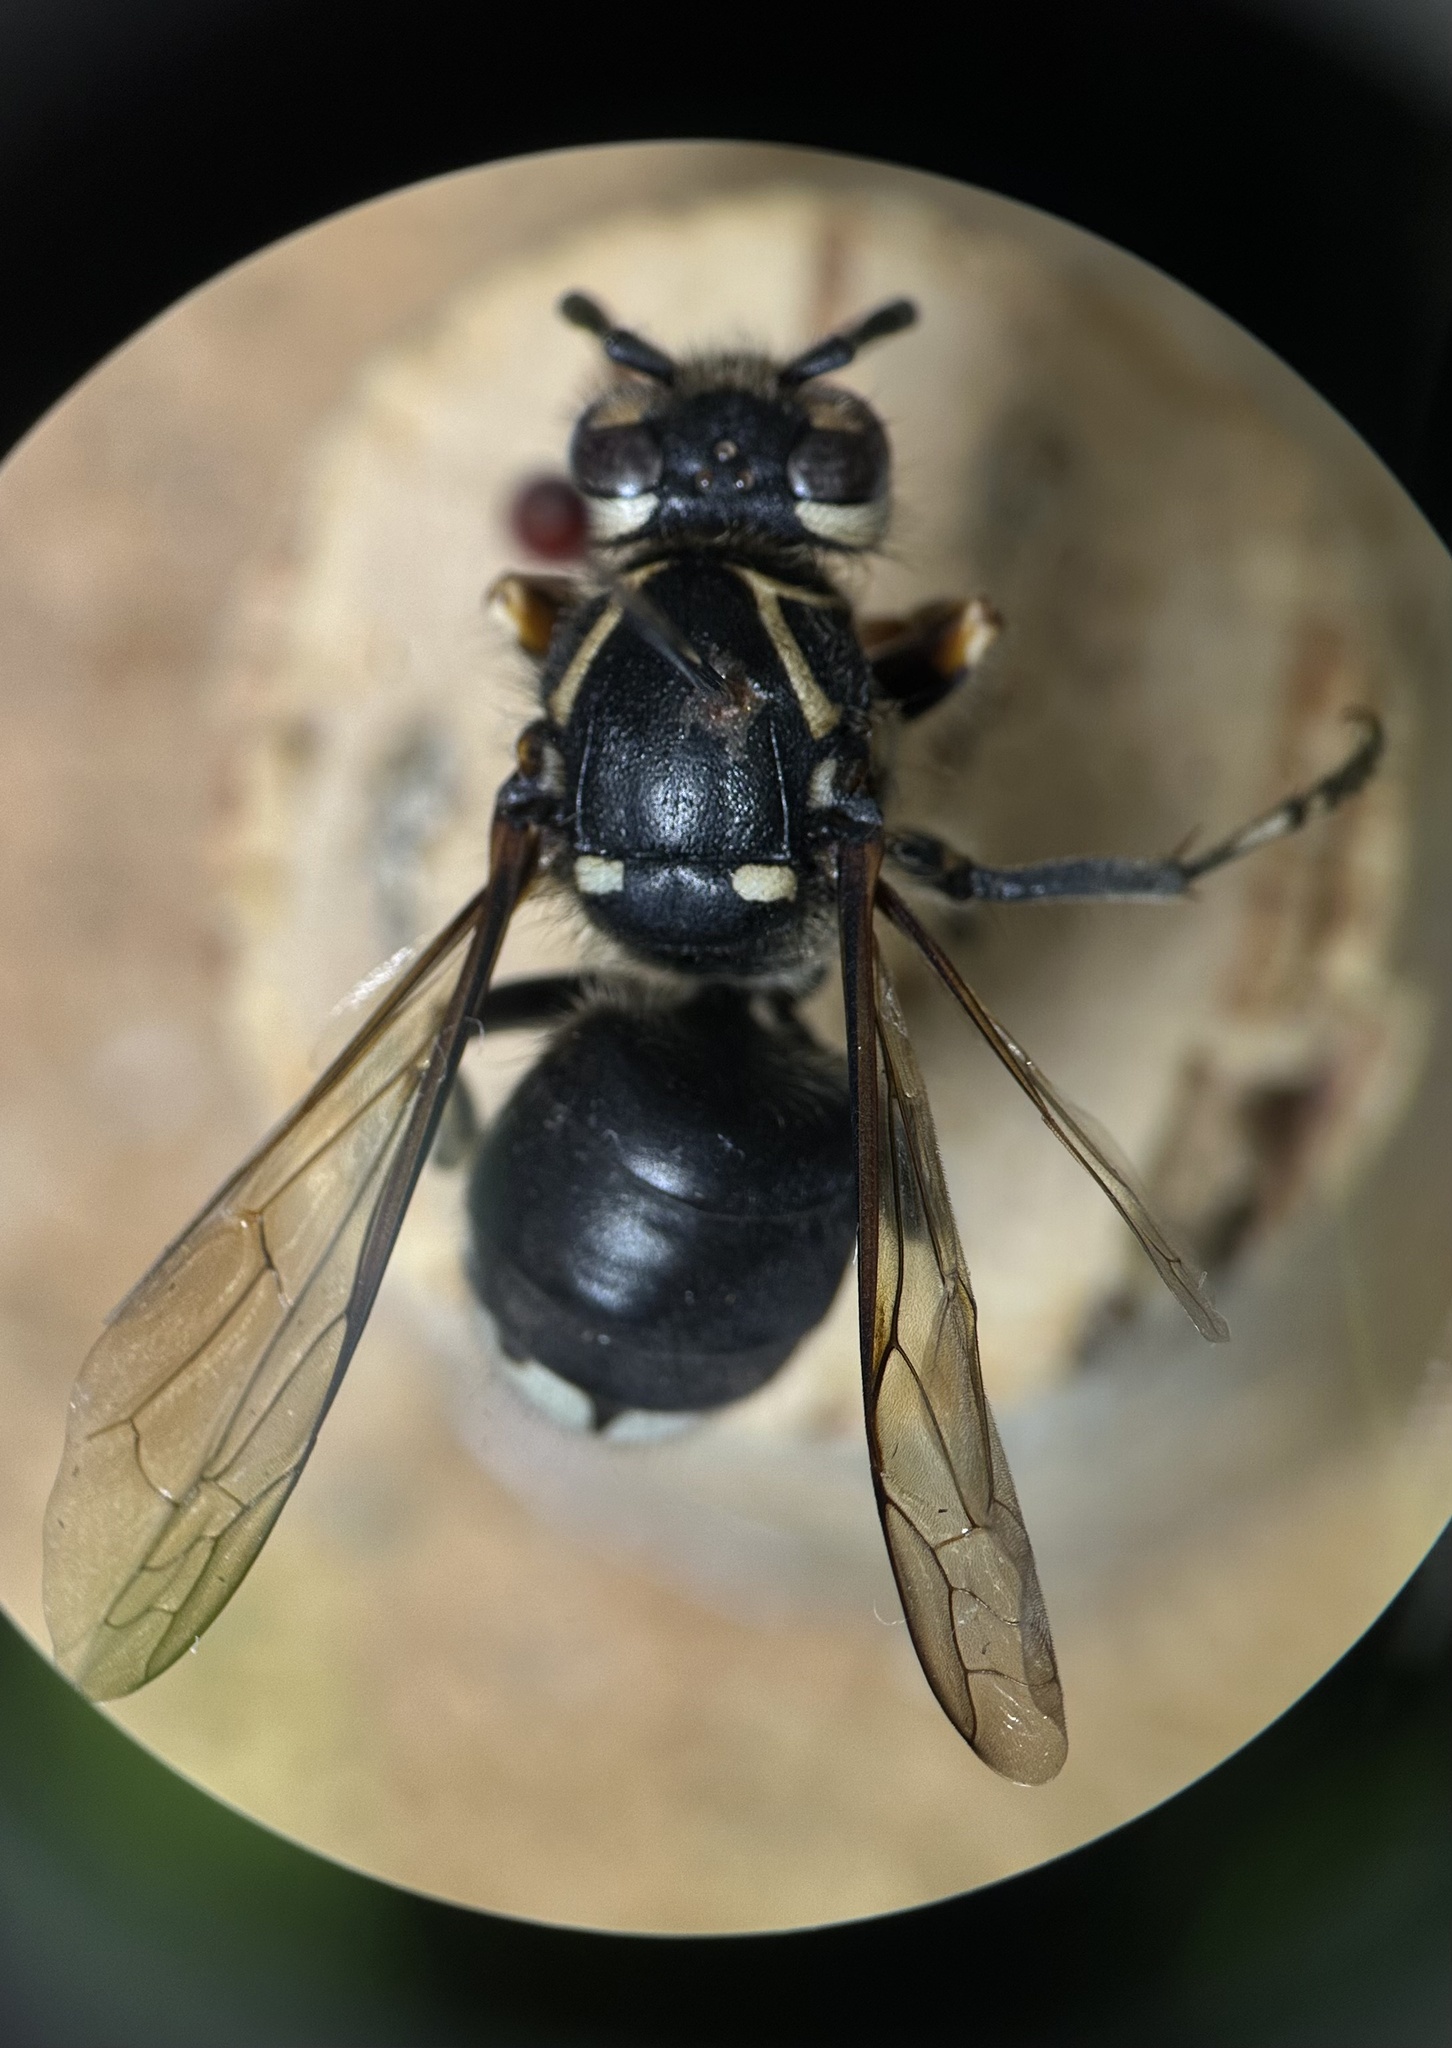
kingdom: Animalia
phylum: Arthropoda
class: Insecta
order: Hymenoptera
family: Vespidae
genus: Dolichovespula
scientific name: Dolichovespula maculata
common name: Bald-faced hornet
